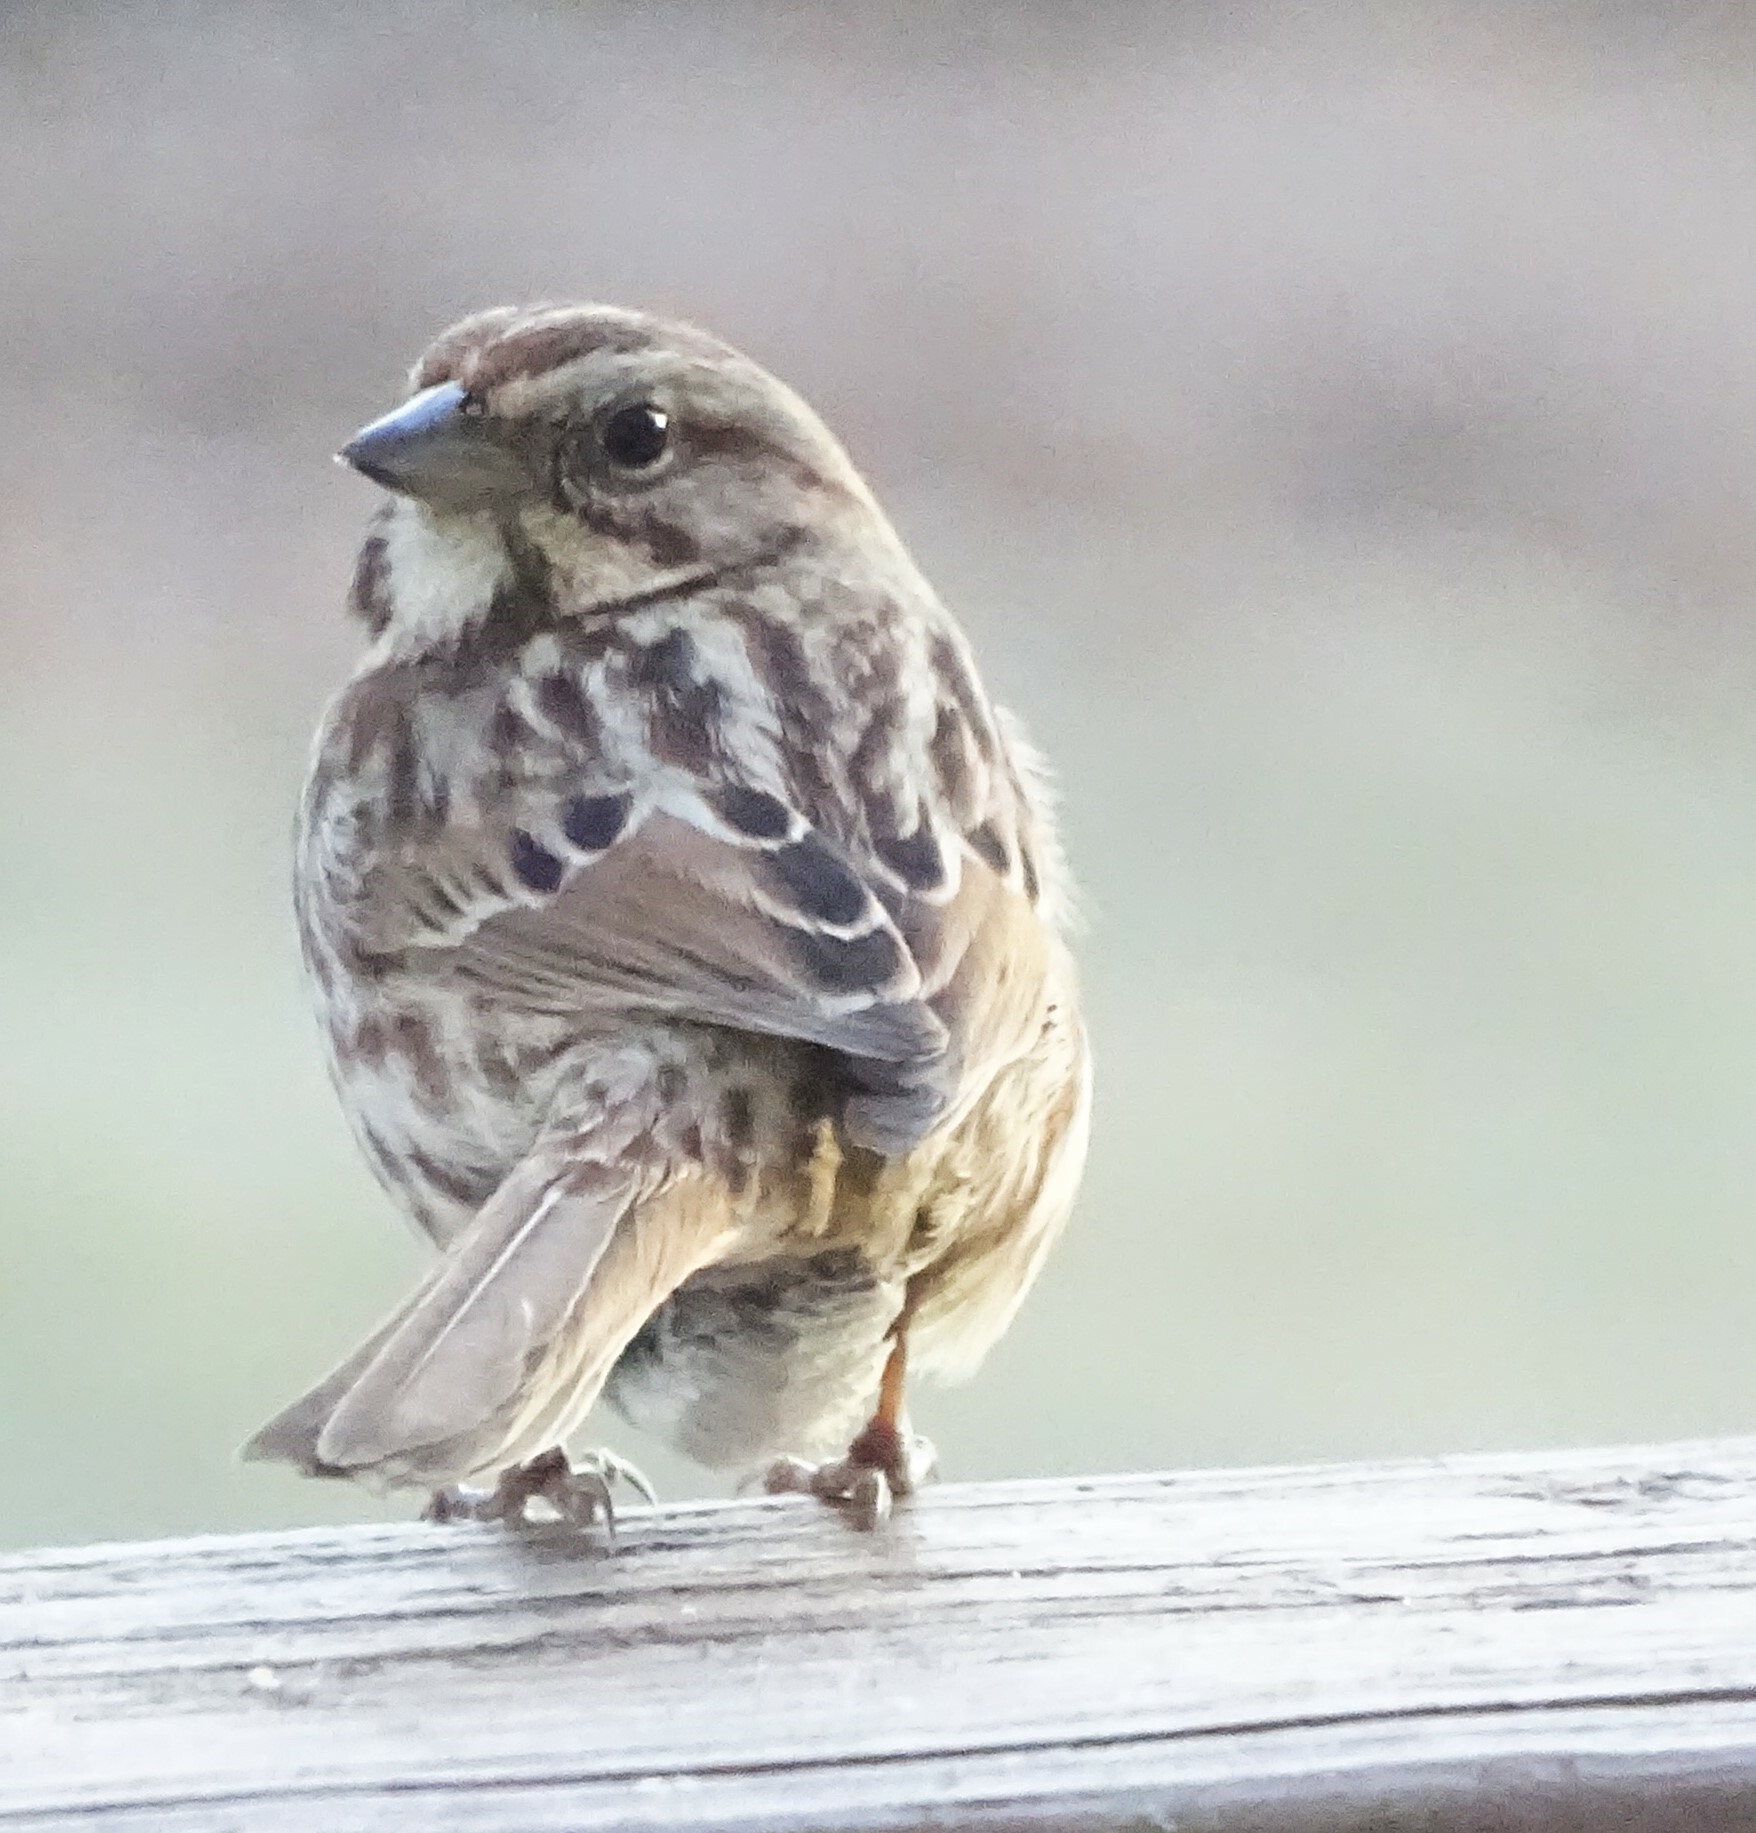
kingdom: Animalia
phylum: Chordata
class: Aves
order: Passeriformes
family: Passerellidae
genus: Melospiza
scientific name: Melospiza melodia
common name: Song sparrow
